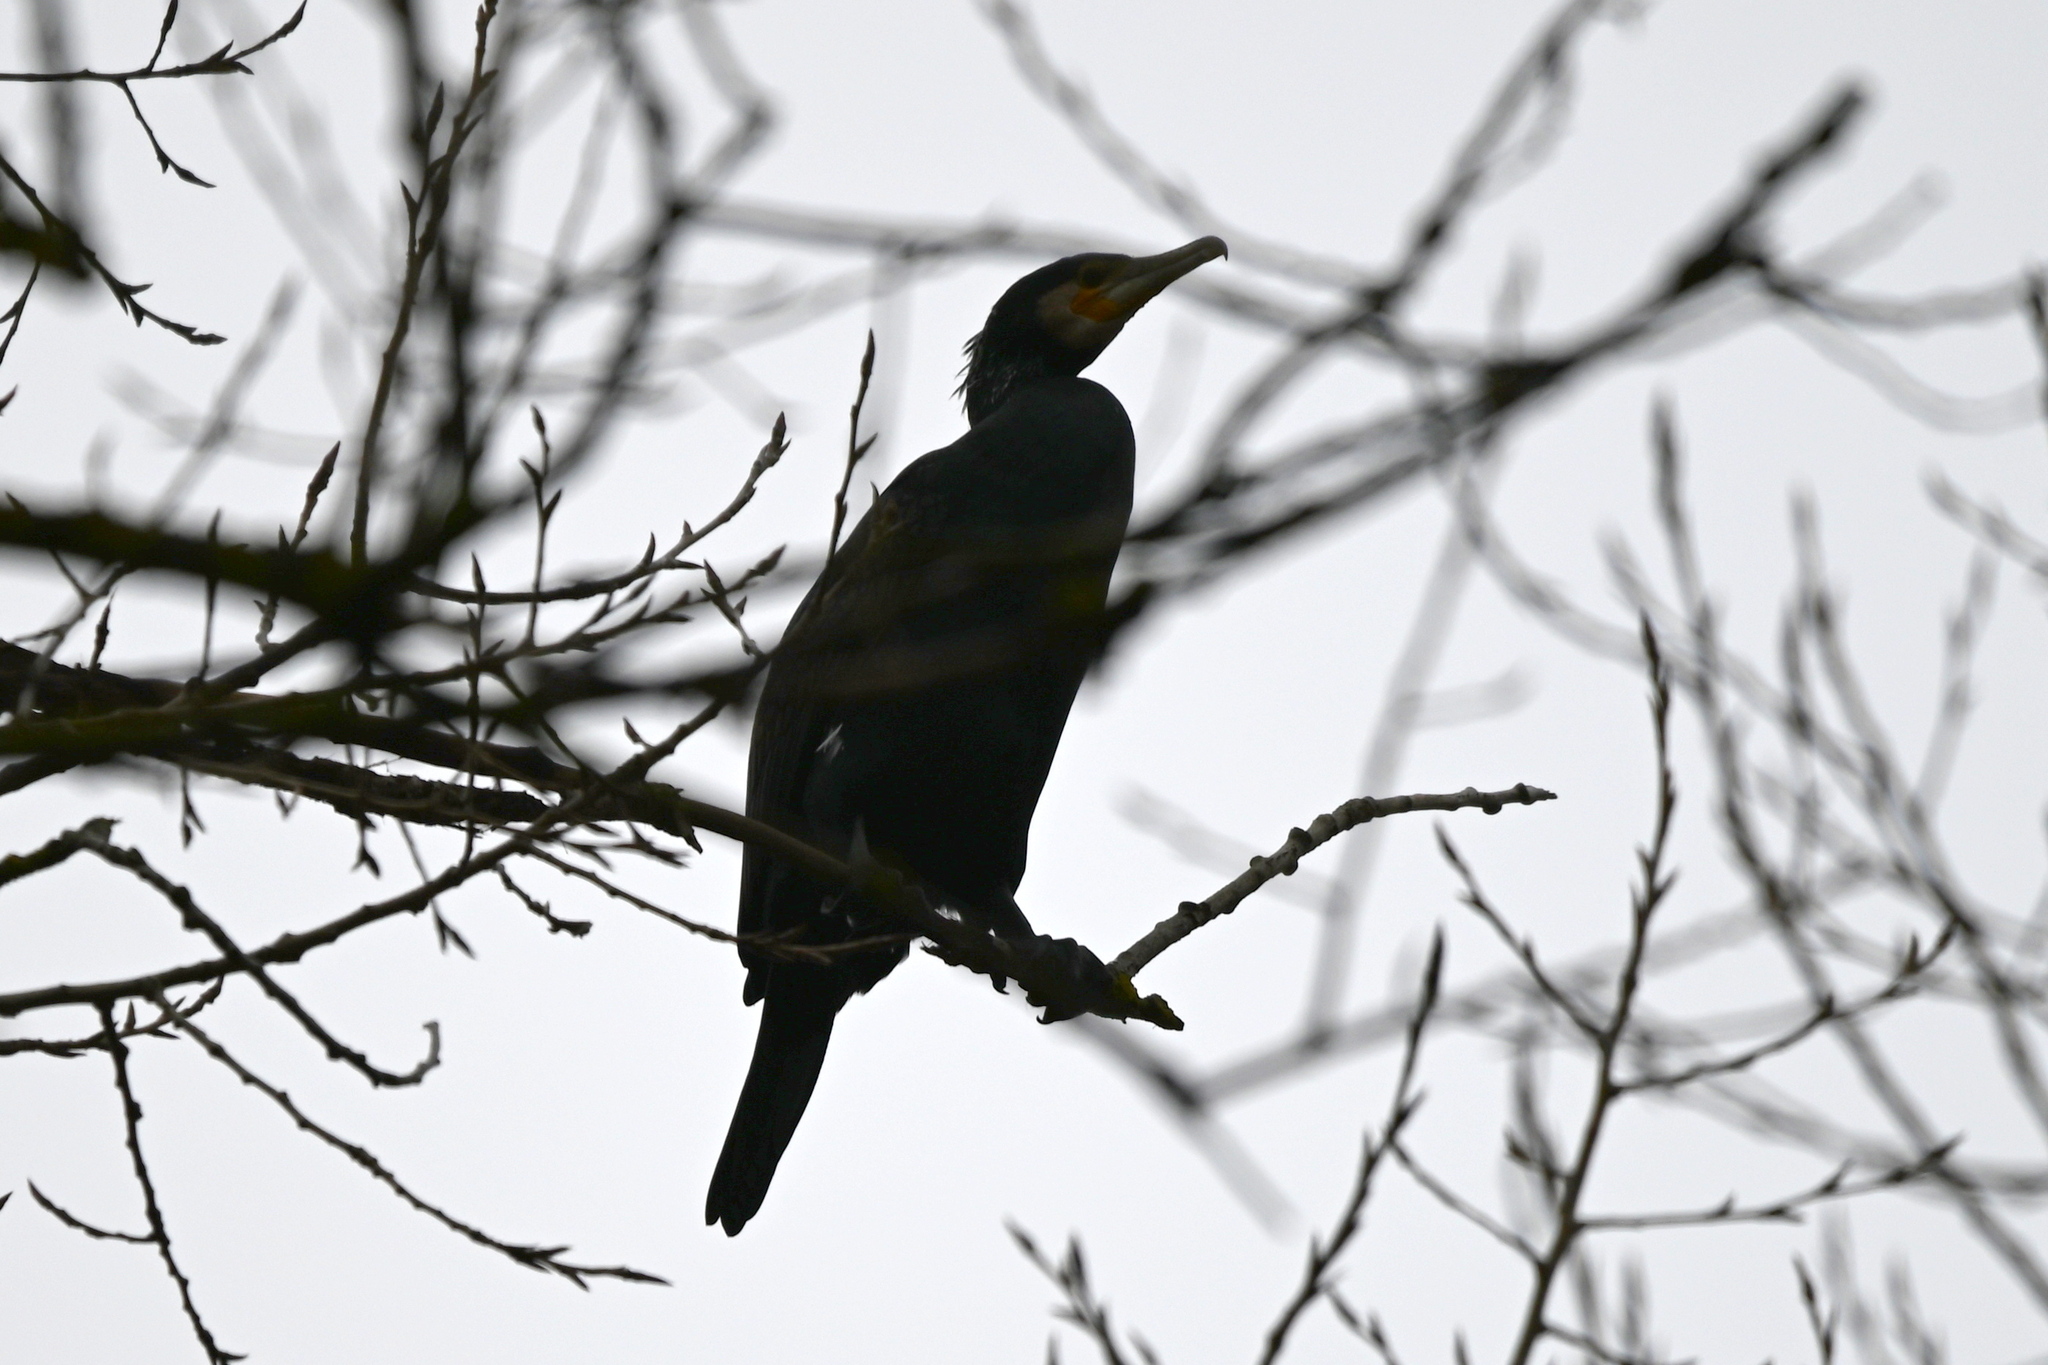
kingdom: Animalia
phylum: Chordata
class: Aves
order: Suliformes
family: Phalacrocoracidae
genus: Phalacrocorax
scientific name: Phalacrocorax carbo
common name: Great cormorant
